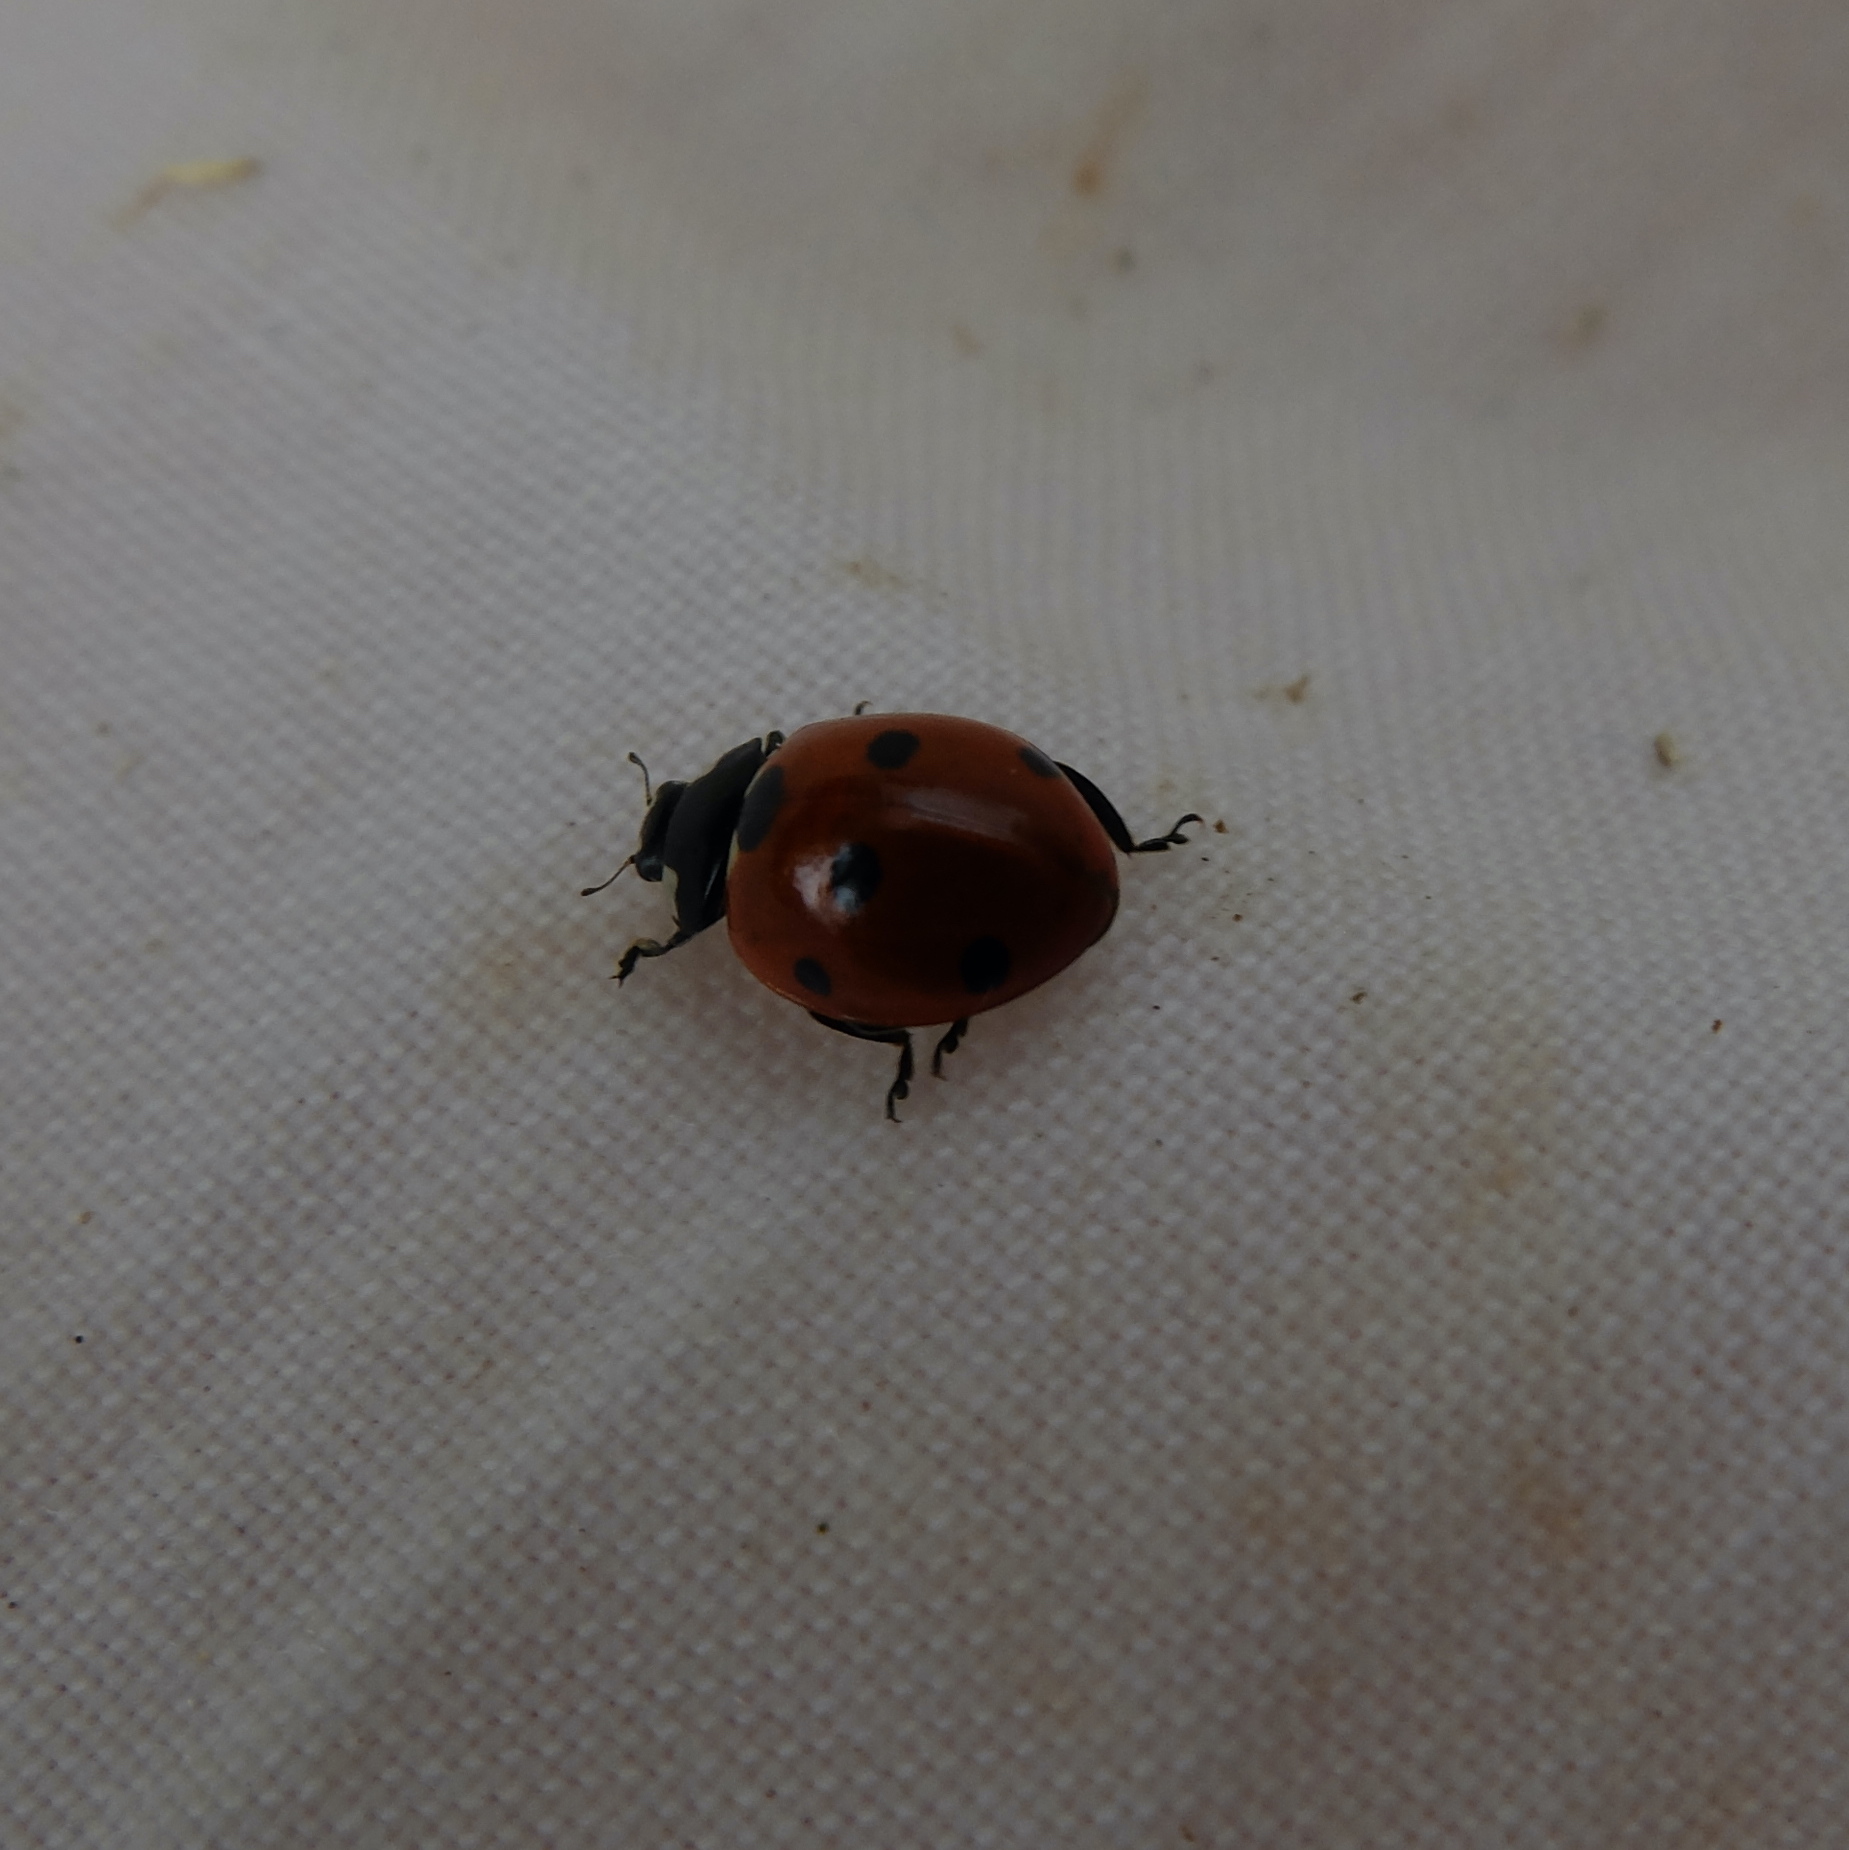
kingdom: Animalia
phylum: Arthropoda
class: Insecta
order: Coleoptera
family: Coccinellidae
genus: Coccinella
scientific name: Coccinella septempunctata
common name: Sevenspotted lady beetle
